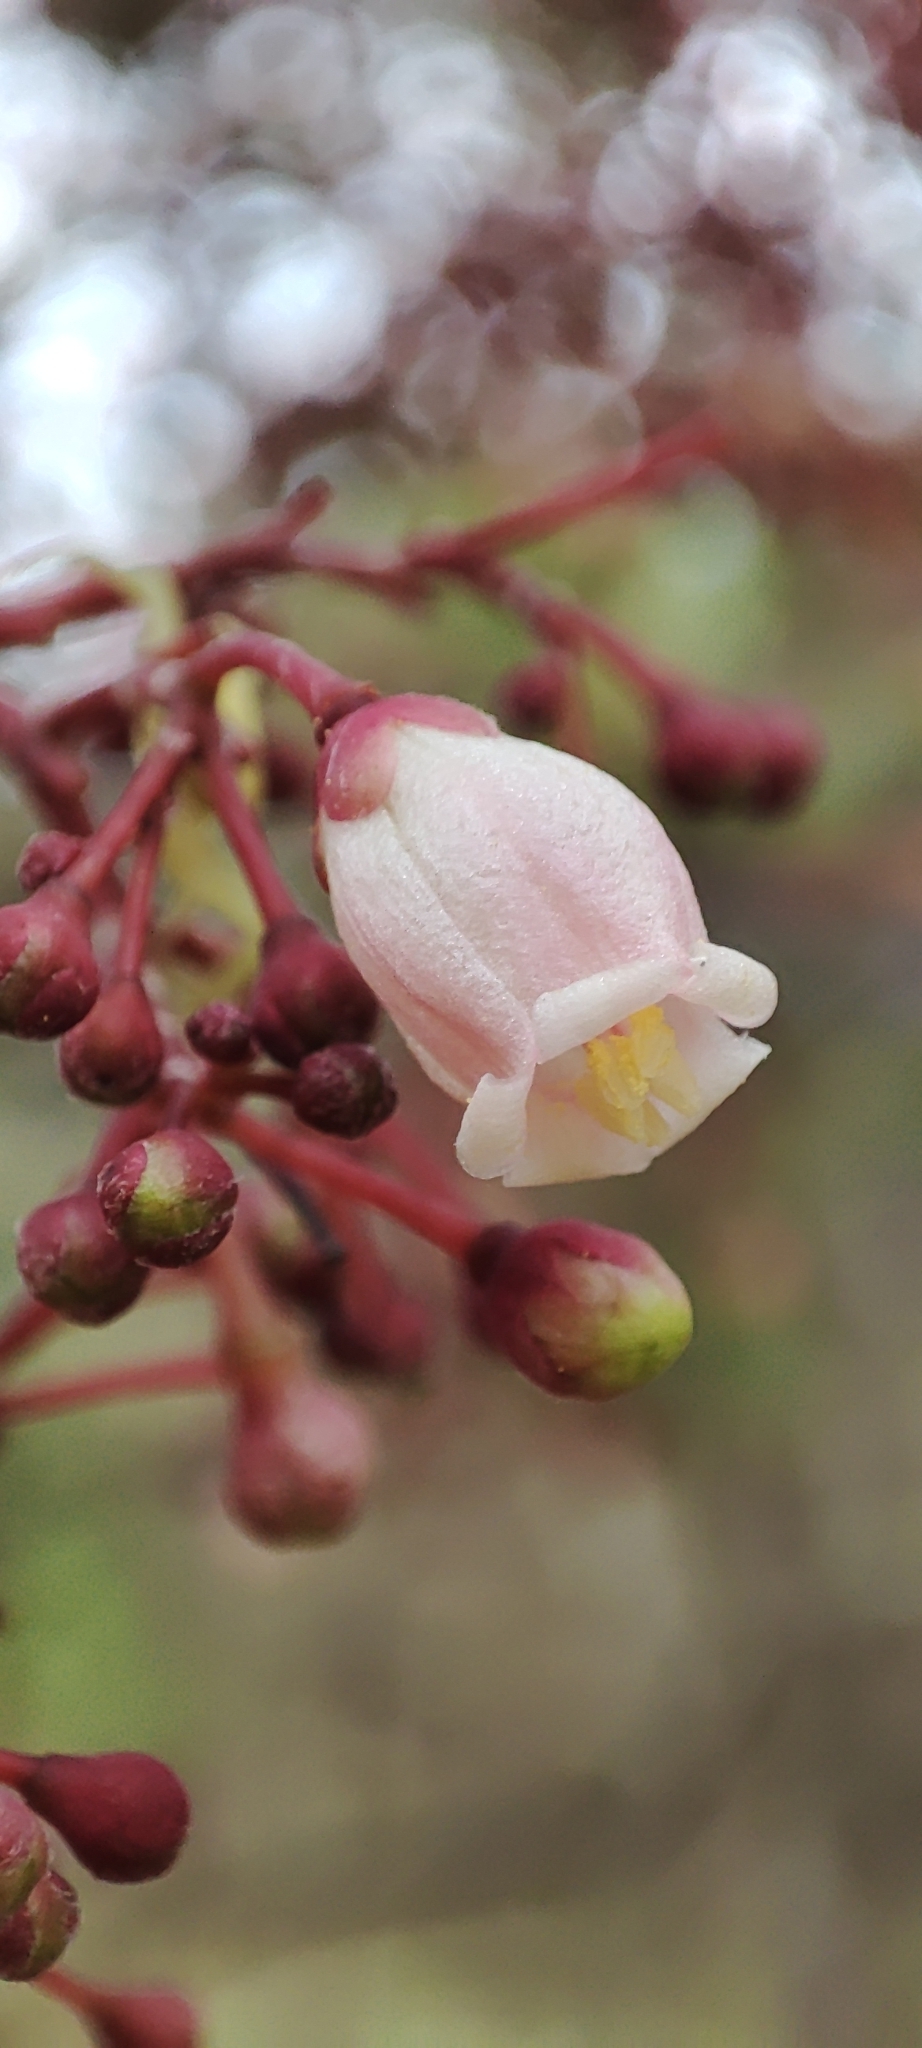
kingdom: Plantae
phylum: Tracheophyta
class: Magnoliopsida
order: Malpighiales
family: Euphorbiaceae
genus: Jatropha
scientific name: Jatropha peltata
